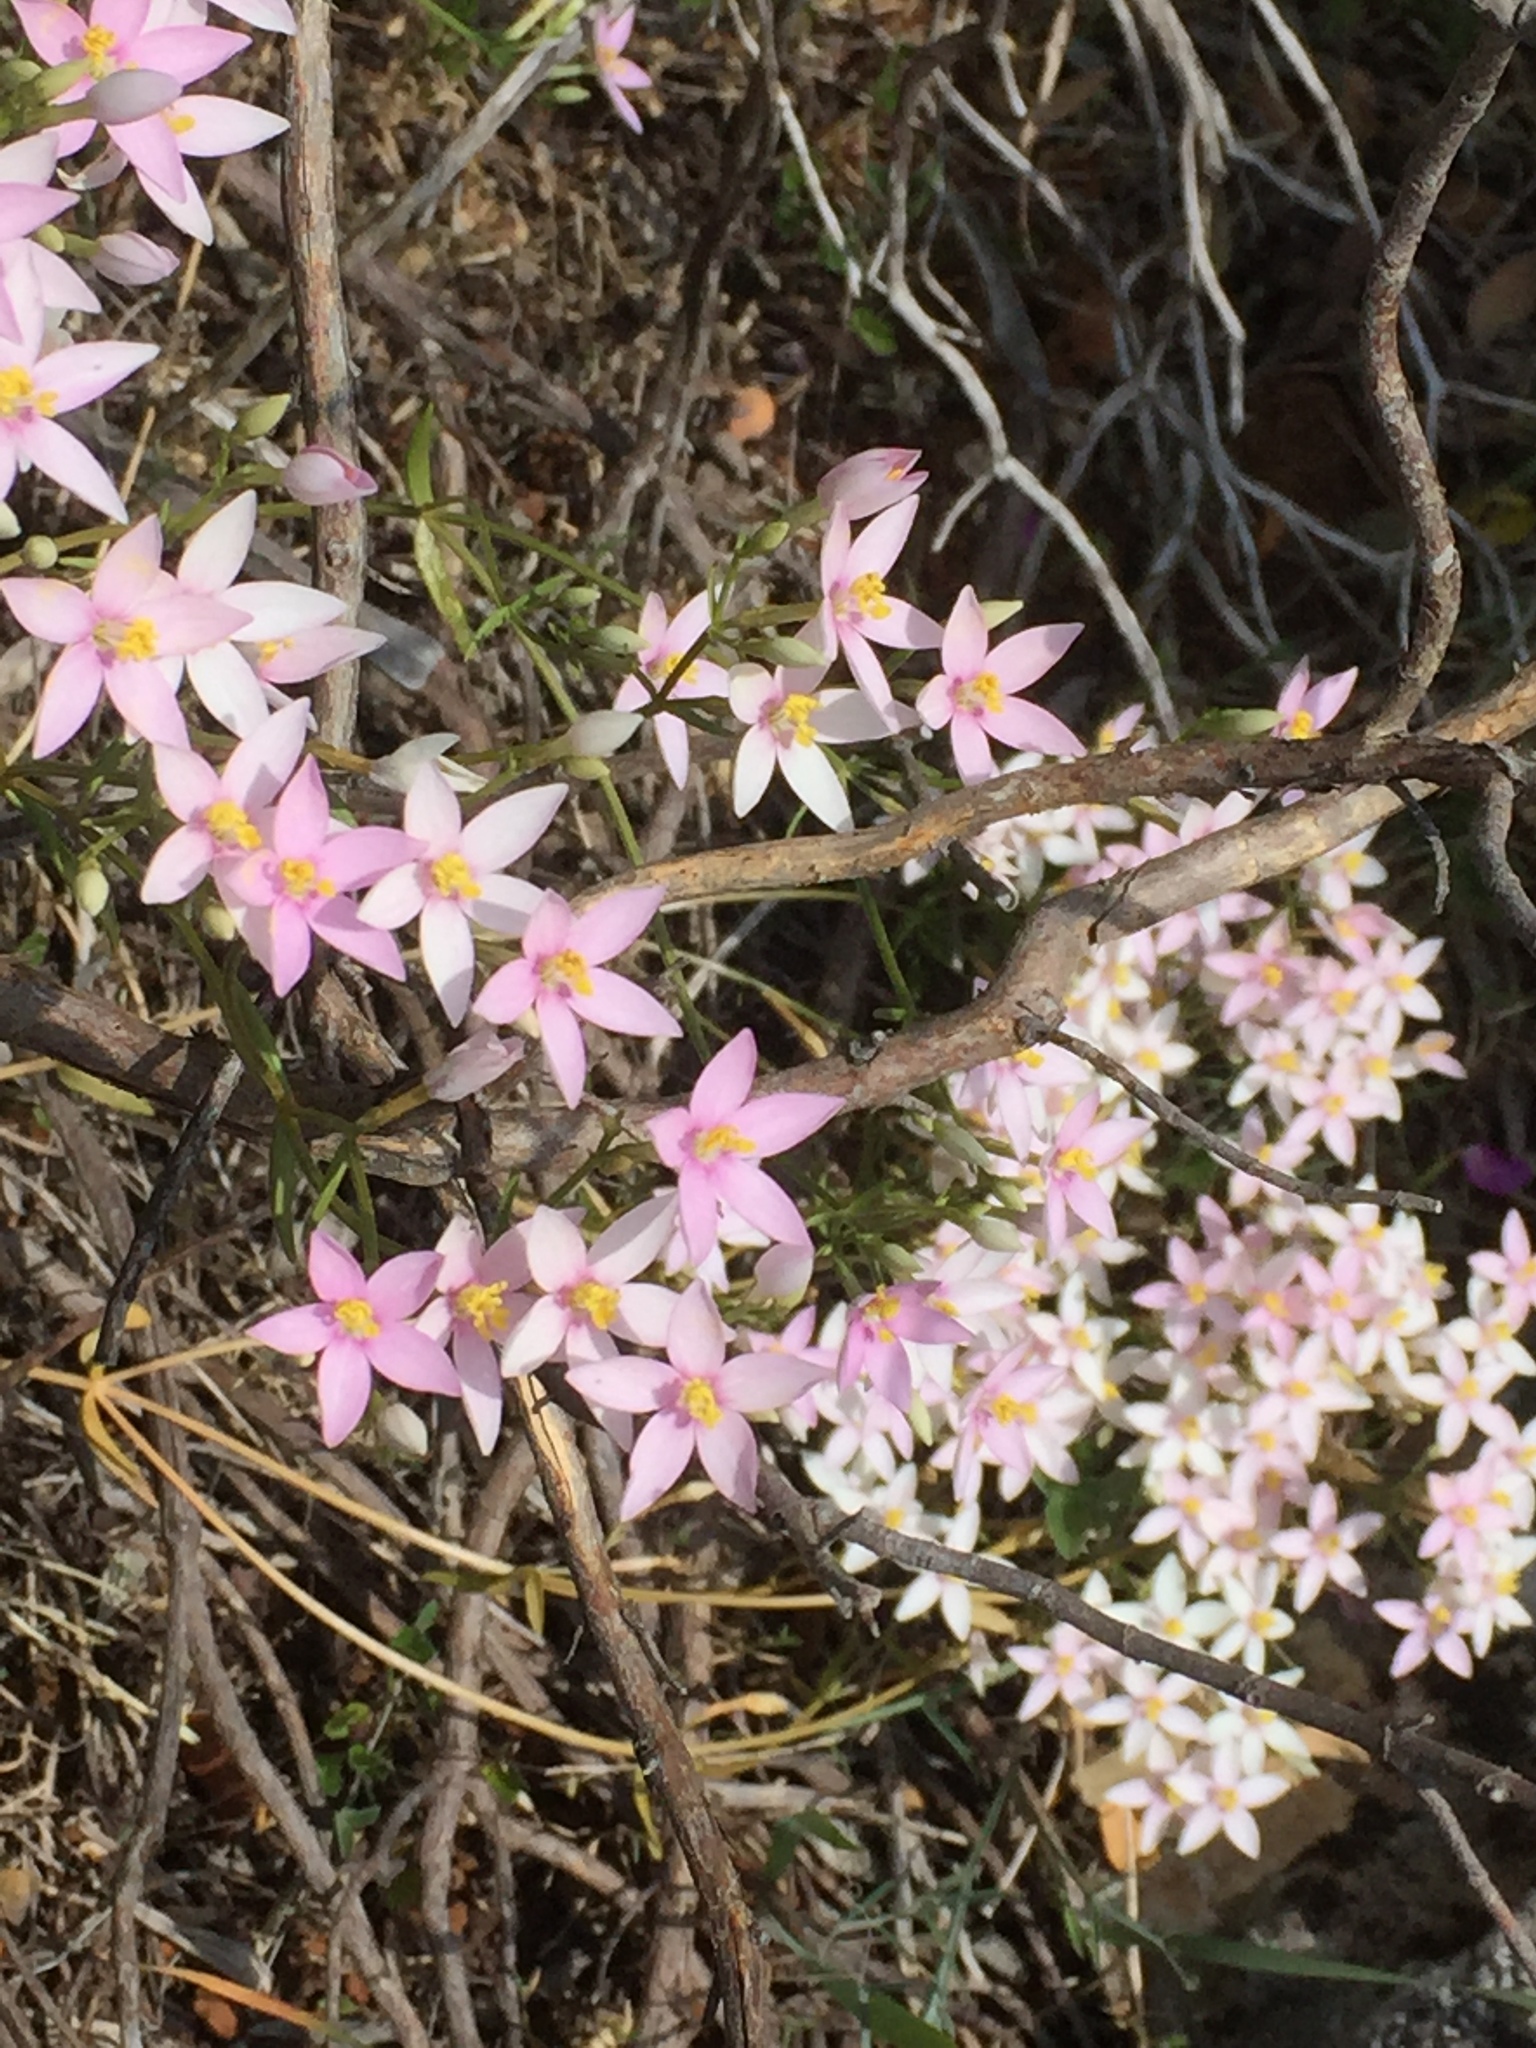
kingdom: Plantae
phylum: Tracheophyta
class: Magnoliopsida
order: Gentianales
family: Gentianaceae
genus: Centaurium
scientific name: Centaurium erythraea
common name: Common centaury
